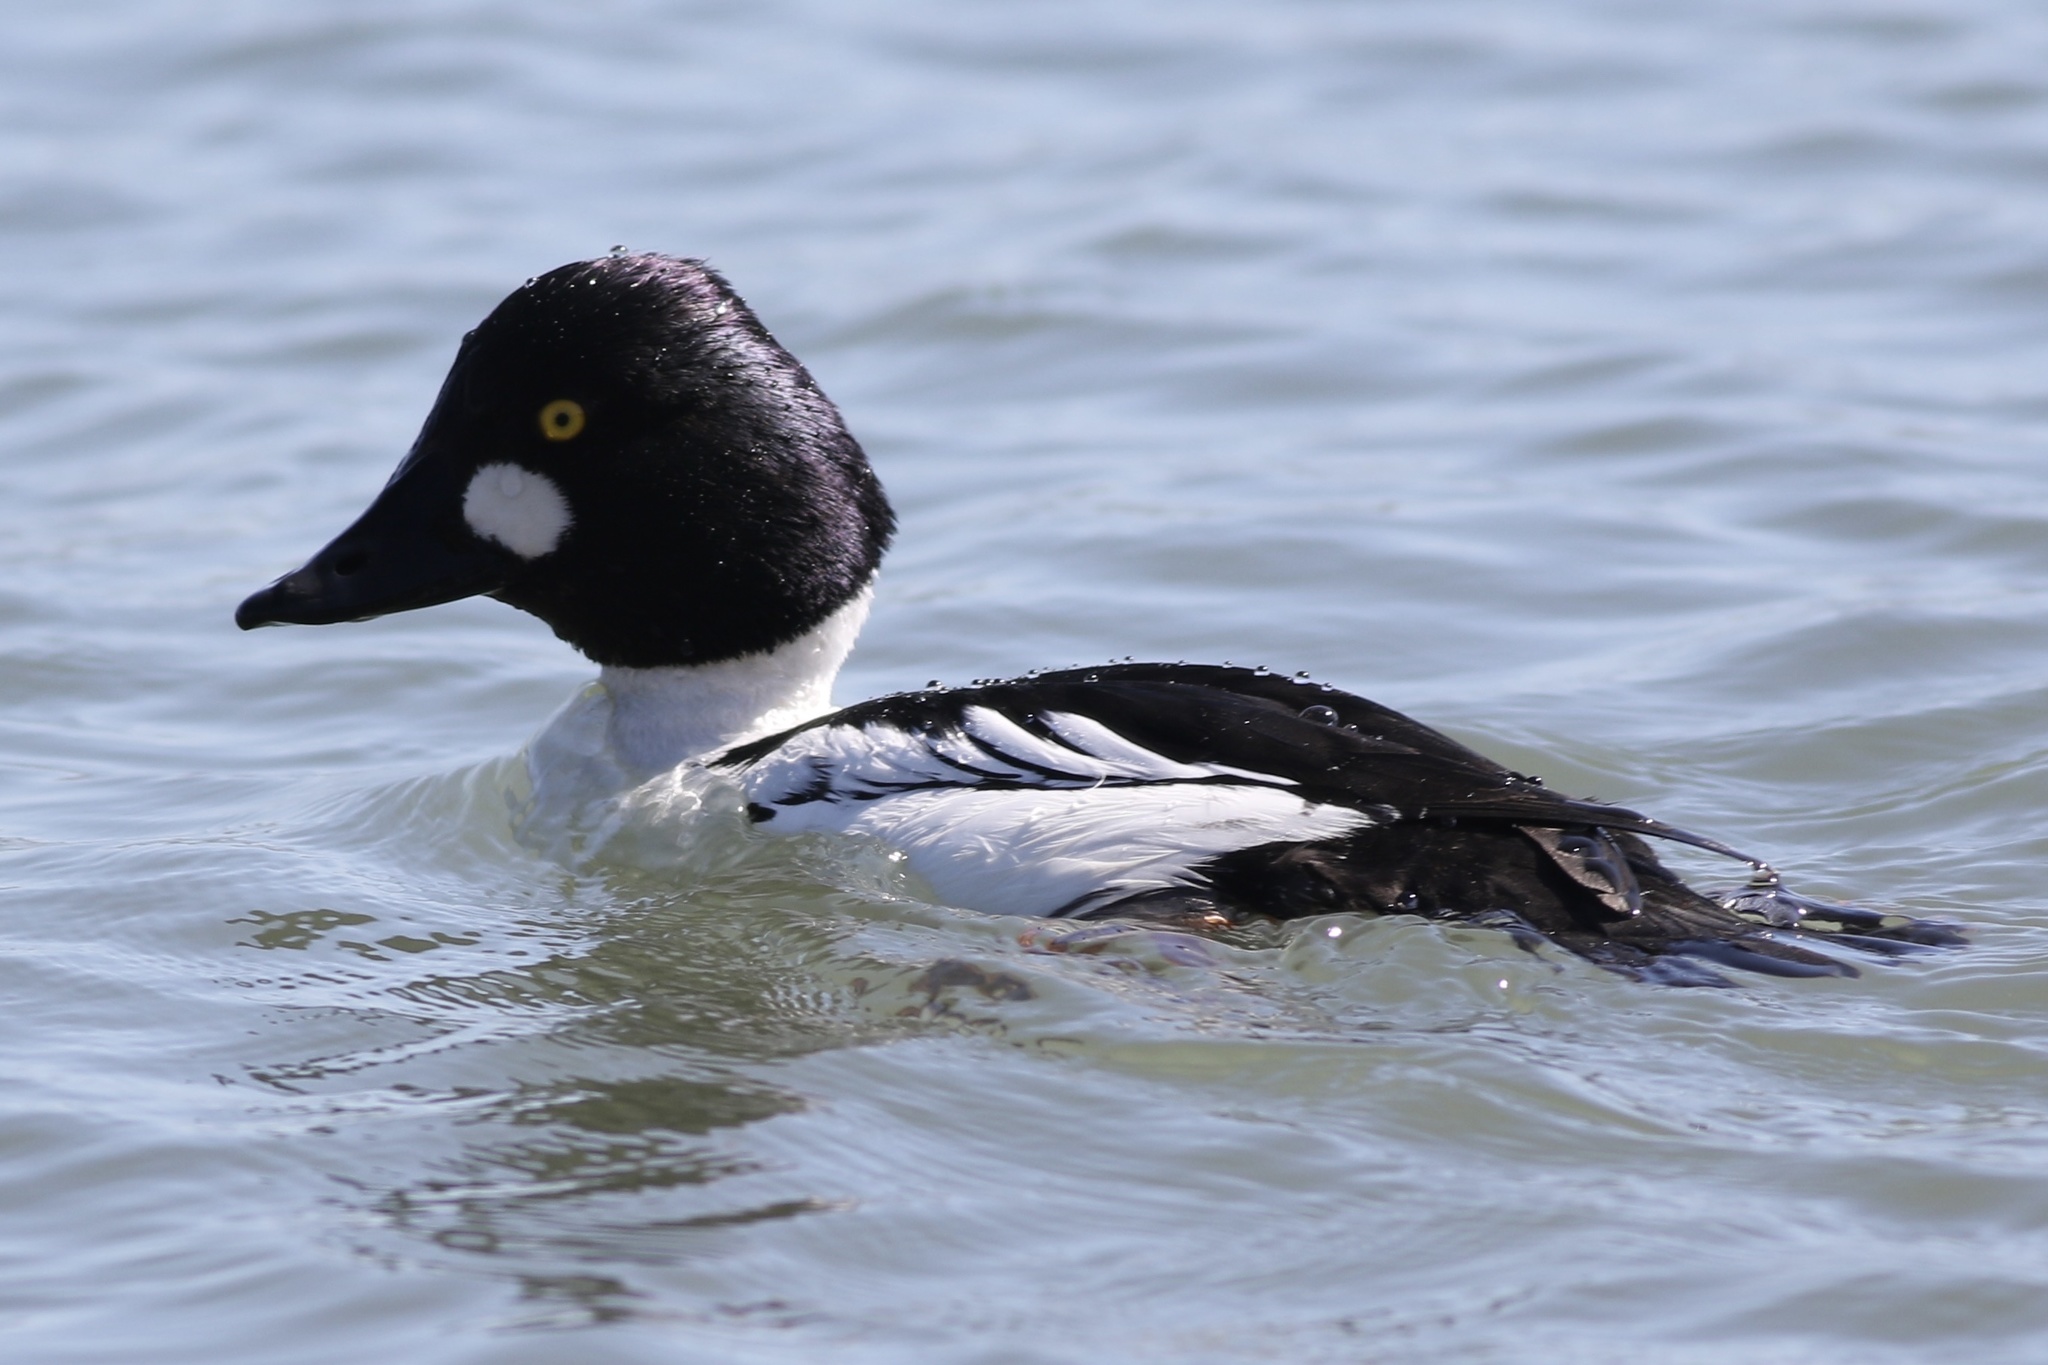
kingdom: Animalia
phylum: Chordata
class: Aves
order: Anseriformes
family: Anatidae
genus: Bucephala
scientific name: Bucephala clangula
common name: Common goldeneye
